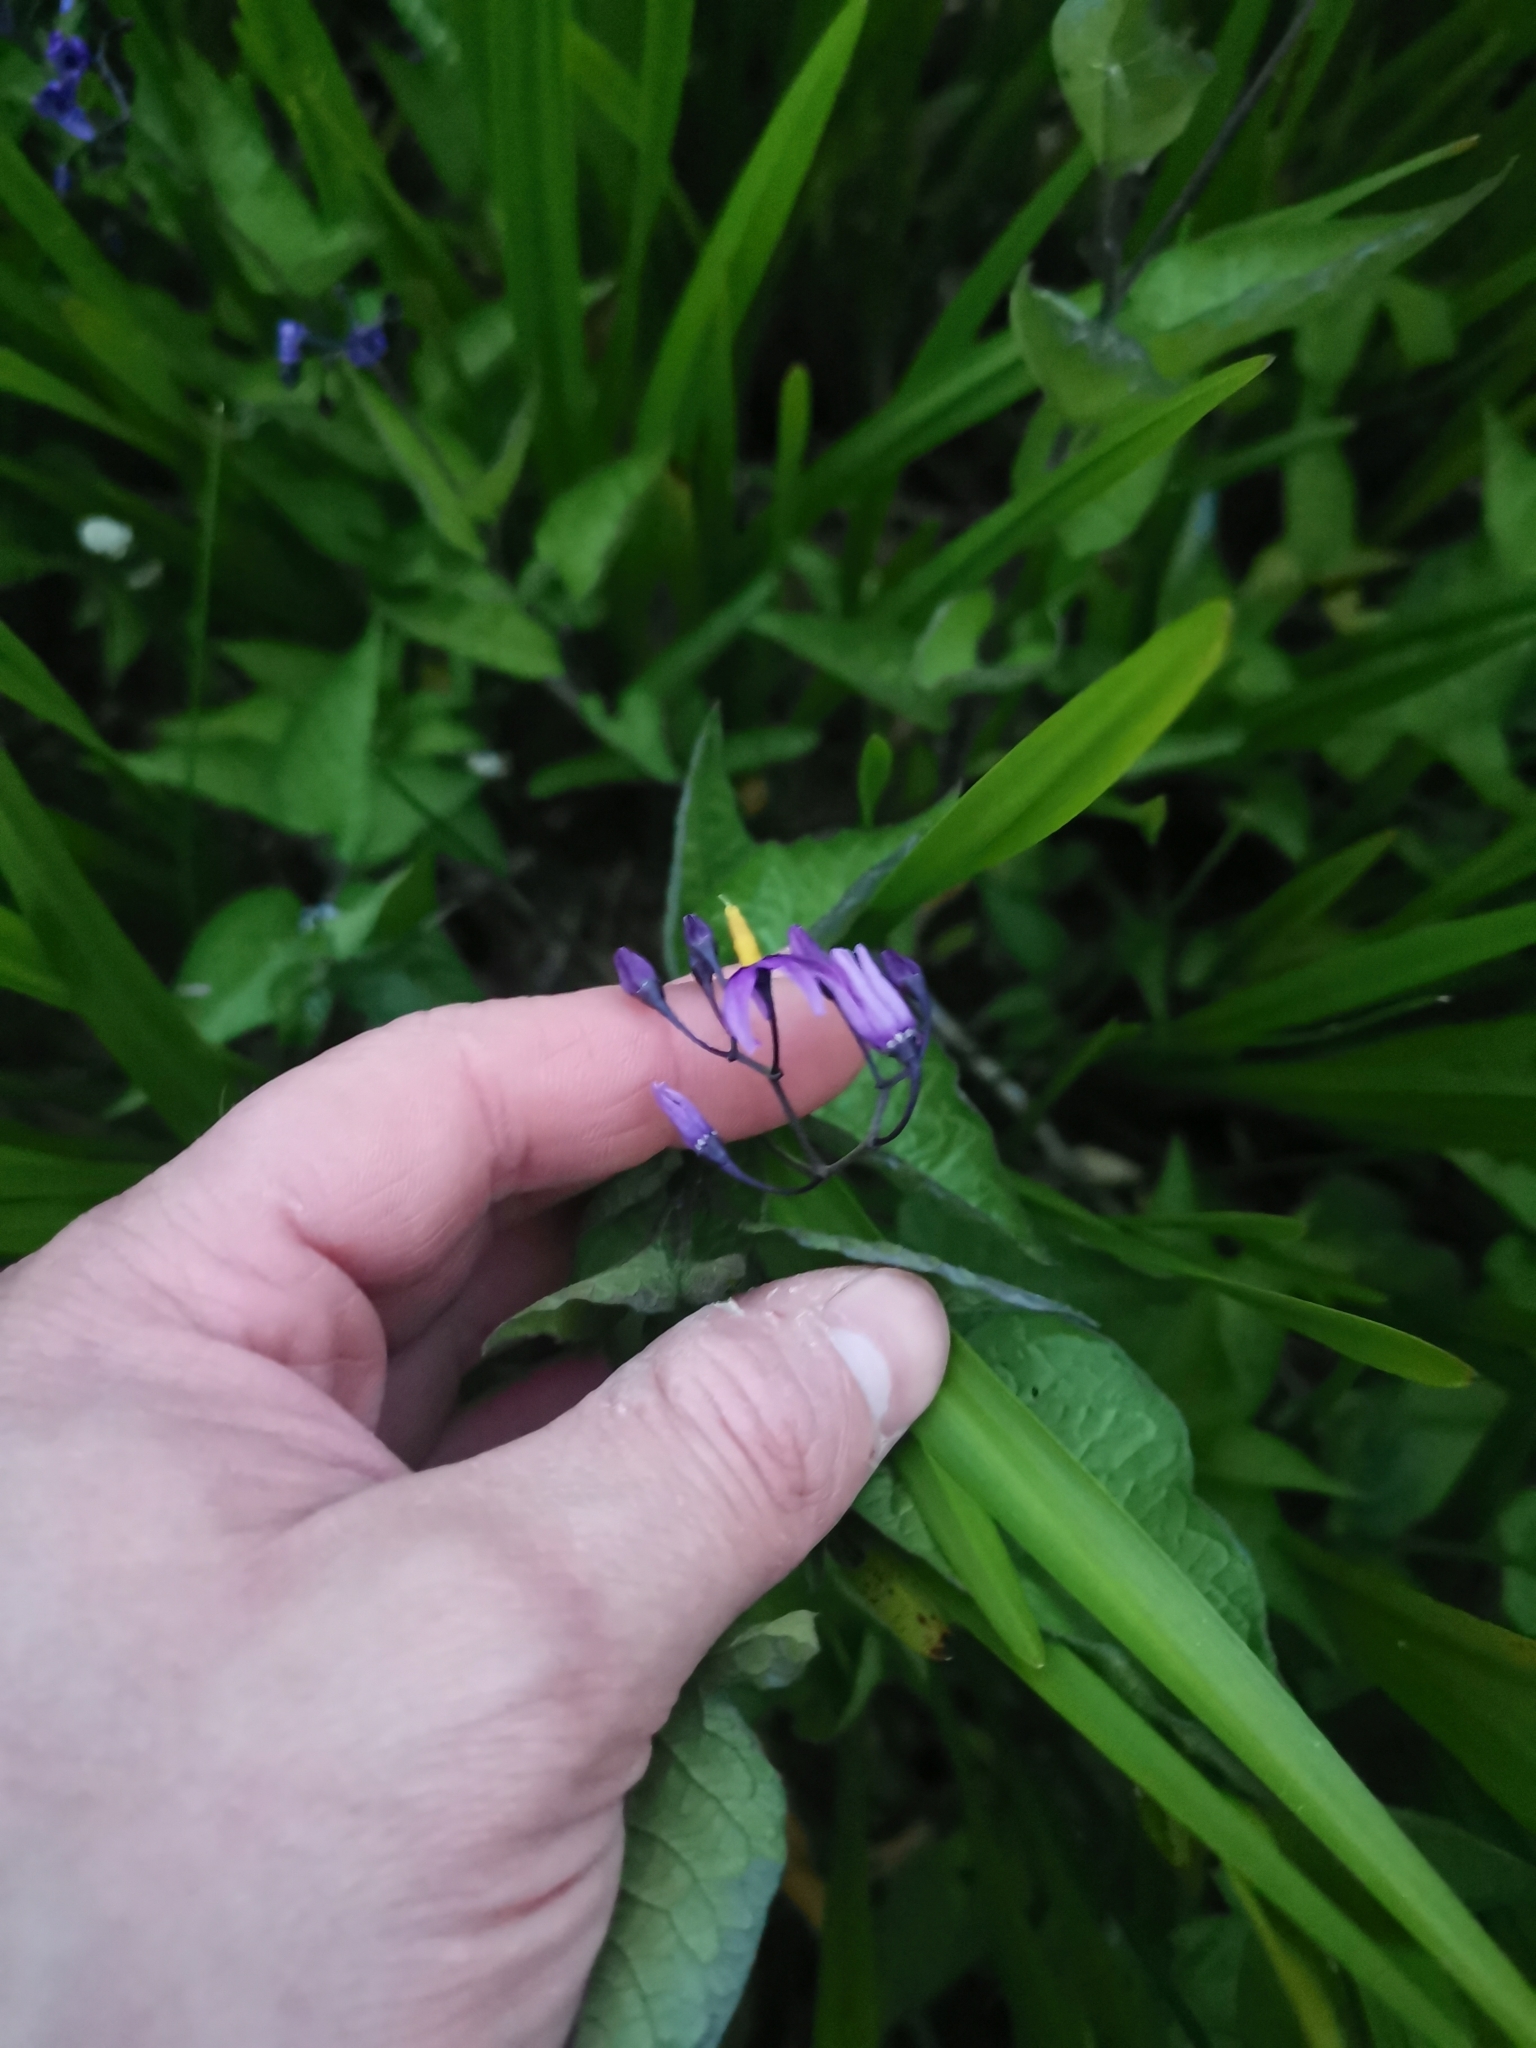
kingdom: Plantae
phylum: Tracheophyta
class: Magnoliopsida
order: Solanales
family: Solanaceae
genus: Solanum
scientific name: Solanum dulcamara
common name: Climbing nightshade
